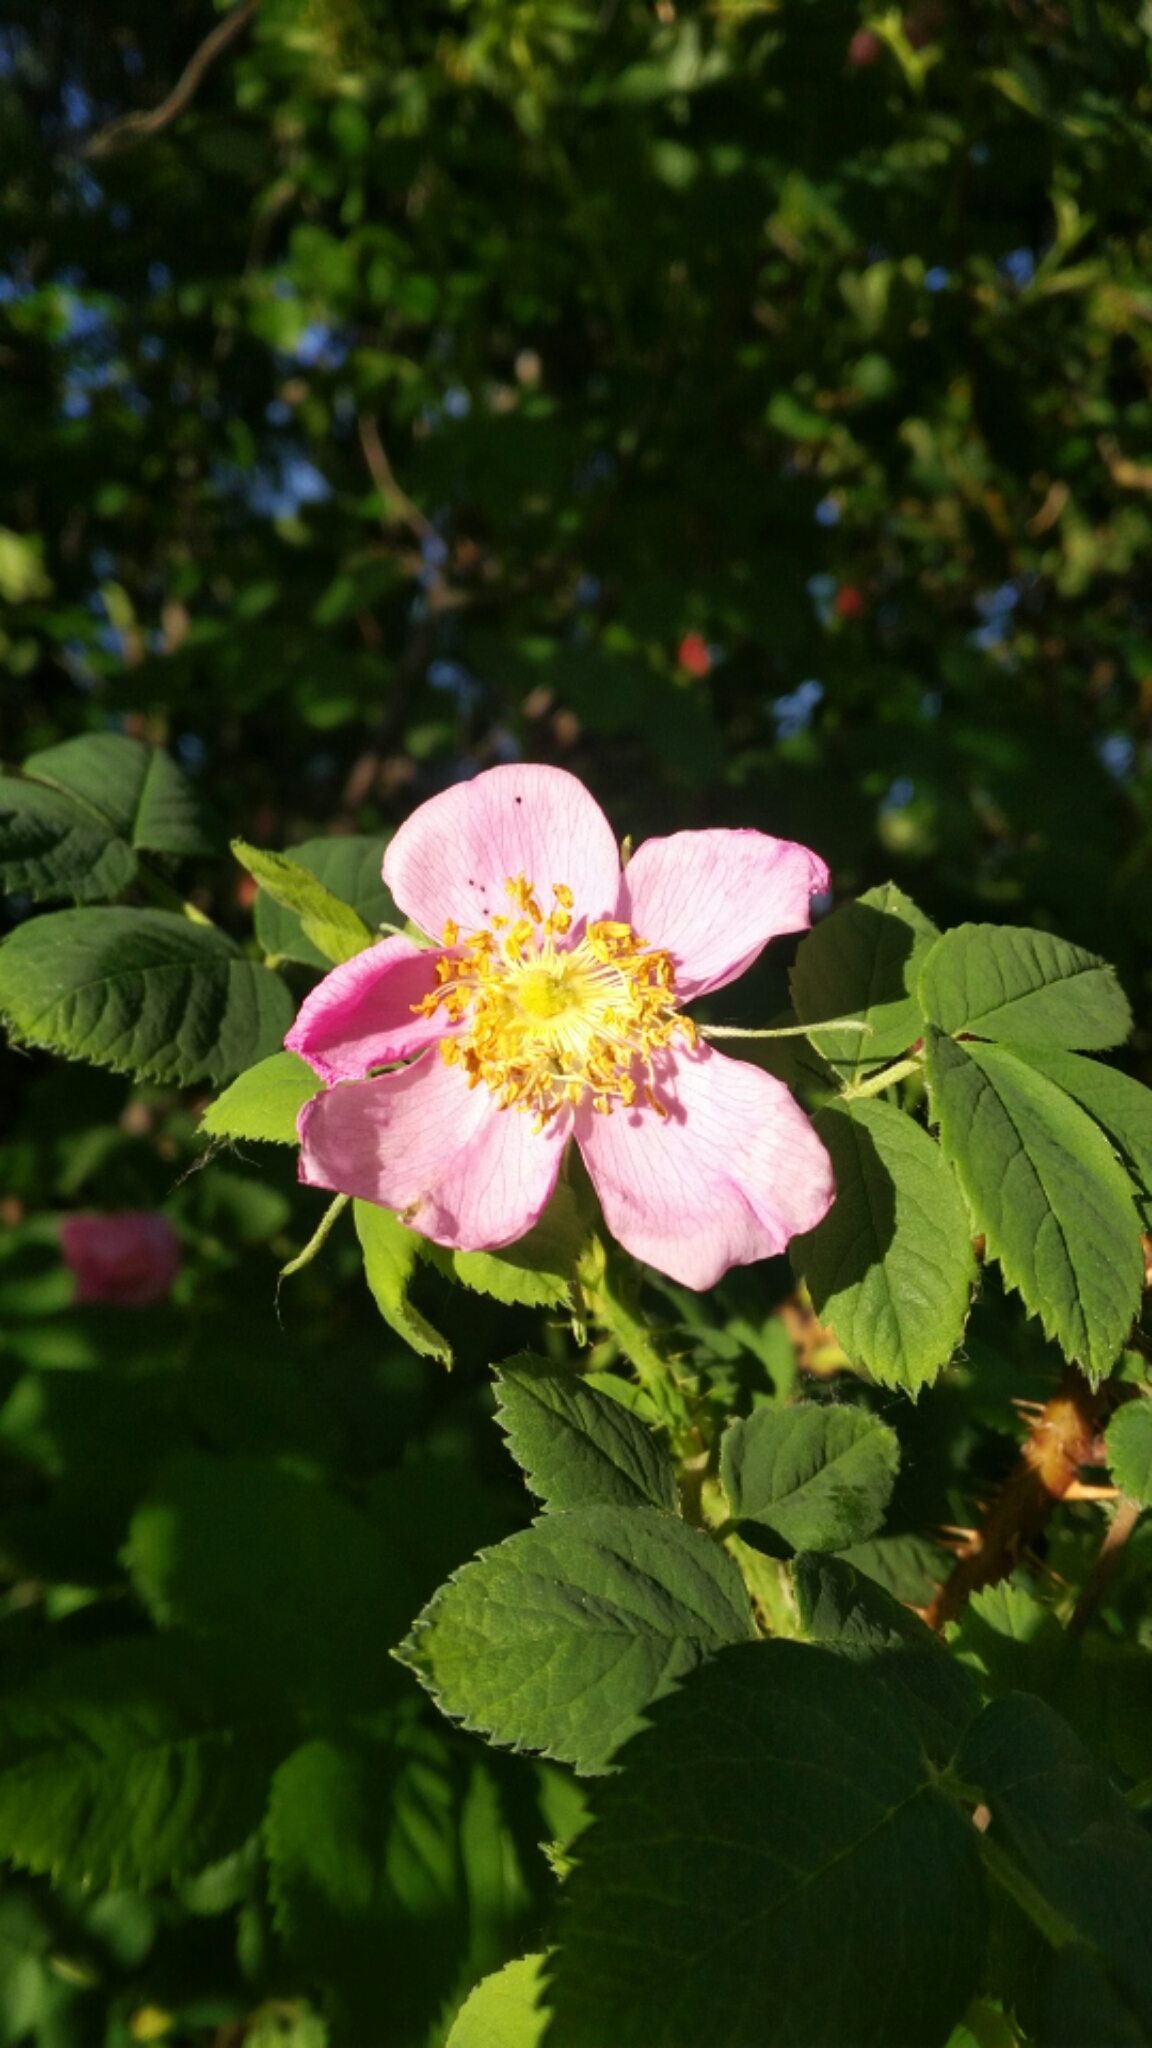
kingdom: Plantae
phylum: Tracheophyta
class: Magnoliopsida
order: Rosales
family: Rosaceae
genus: Rosa
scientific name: Rosa acicularis
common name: Prickly rose
